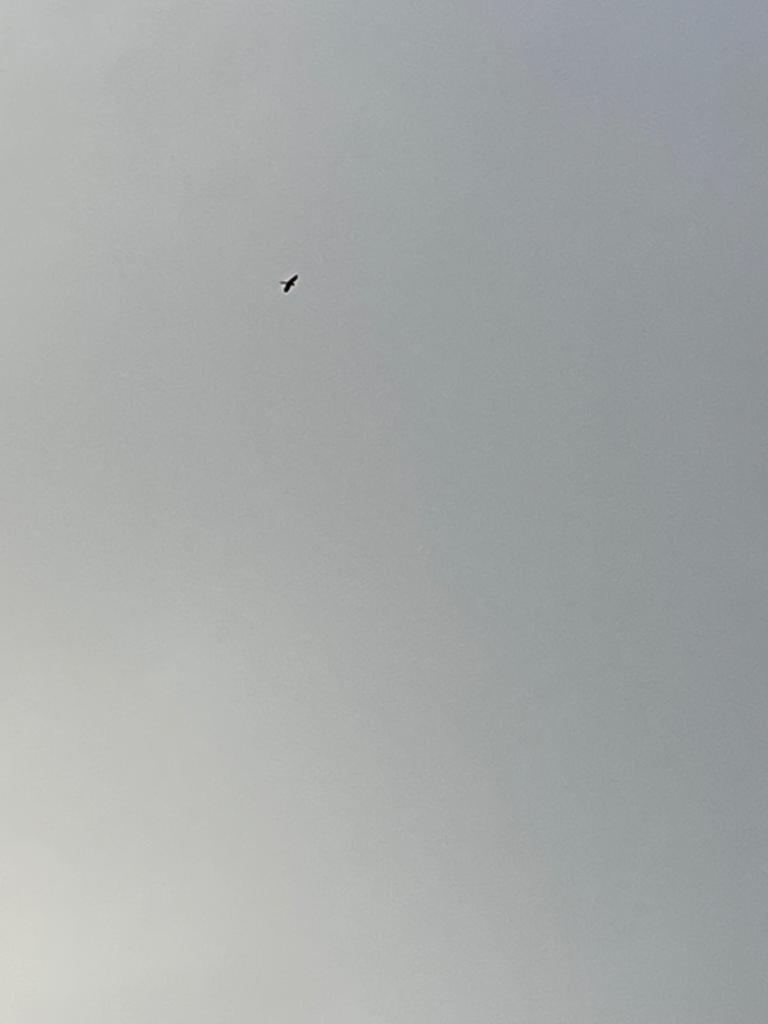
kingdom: Animalia
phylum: Chordata
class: Aves
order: Falconiformes
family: Falconidae
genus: Falco
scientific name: Falco tinnunculus
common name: Common kestrel
